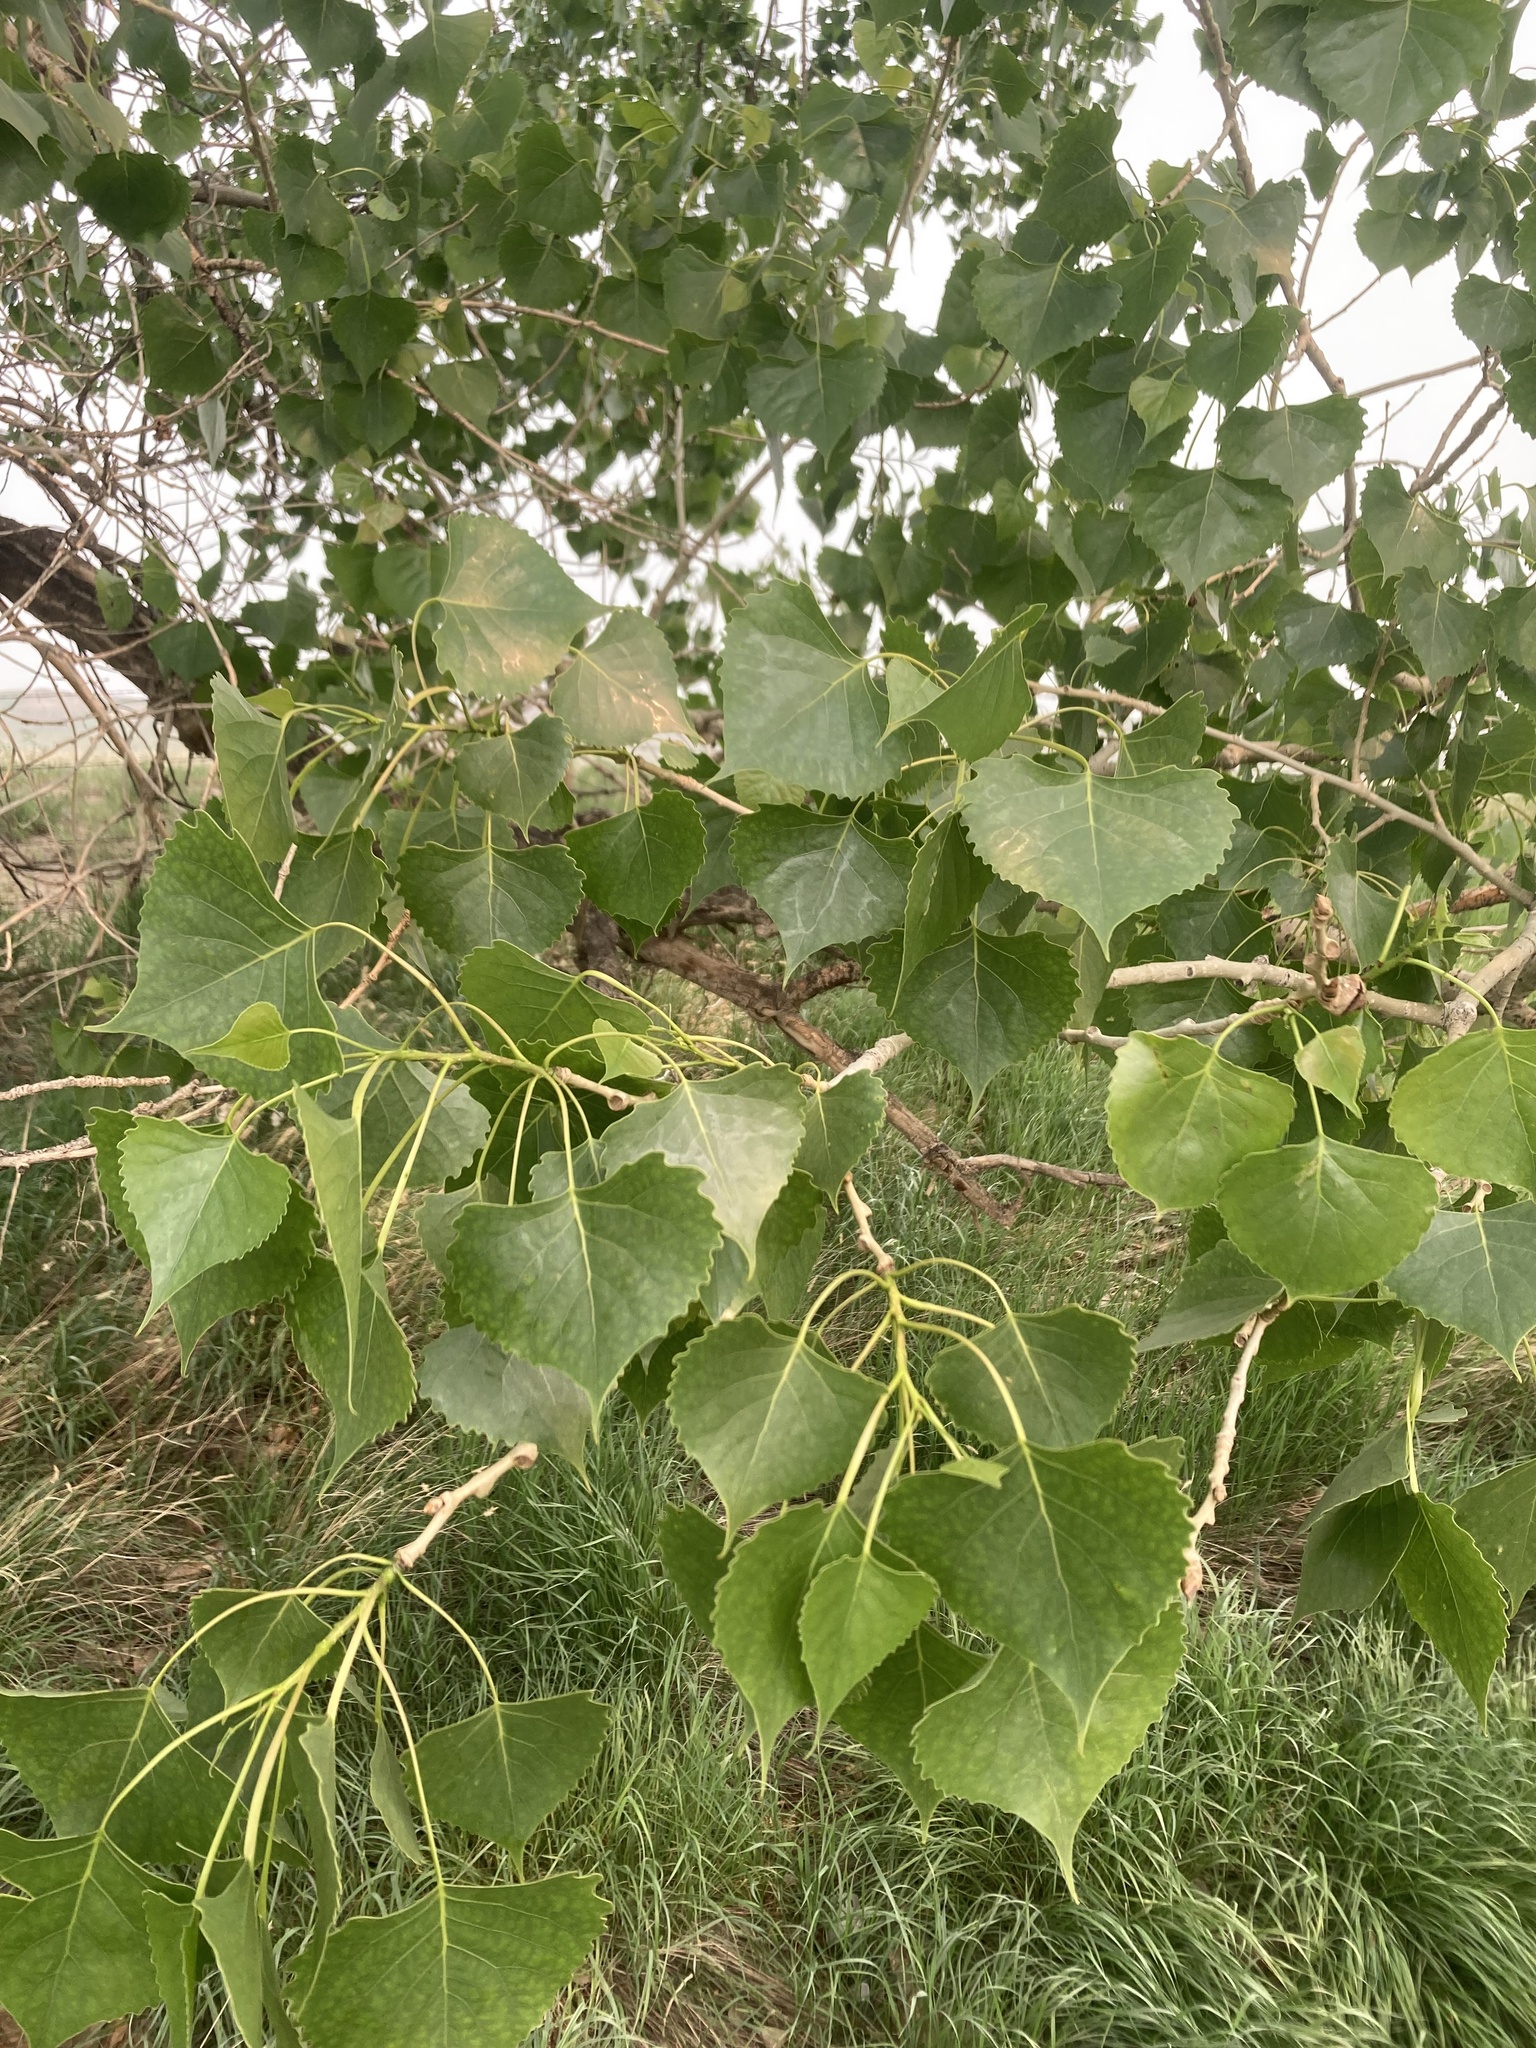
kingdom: Plantae
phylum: Tracheophyta
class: Magnoliopsida
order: Malpighiales
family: Salicaceae
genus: Populus
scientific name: Populus deltoides
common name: Eastern cottonwood
